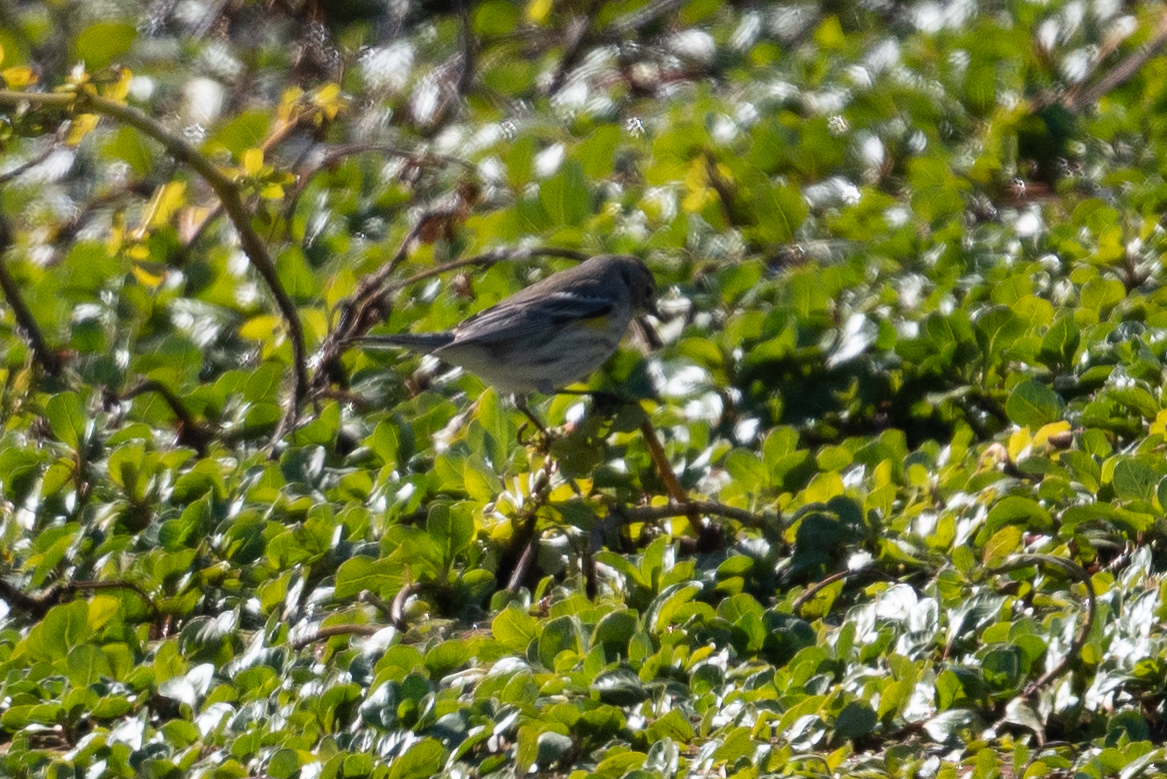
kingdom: Animalia
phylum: Chordata
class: Aves
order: Passeriformes
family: Parulidae
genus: Setophaga
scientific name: Setophaga coronata
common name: Myrtle warbler
